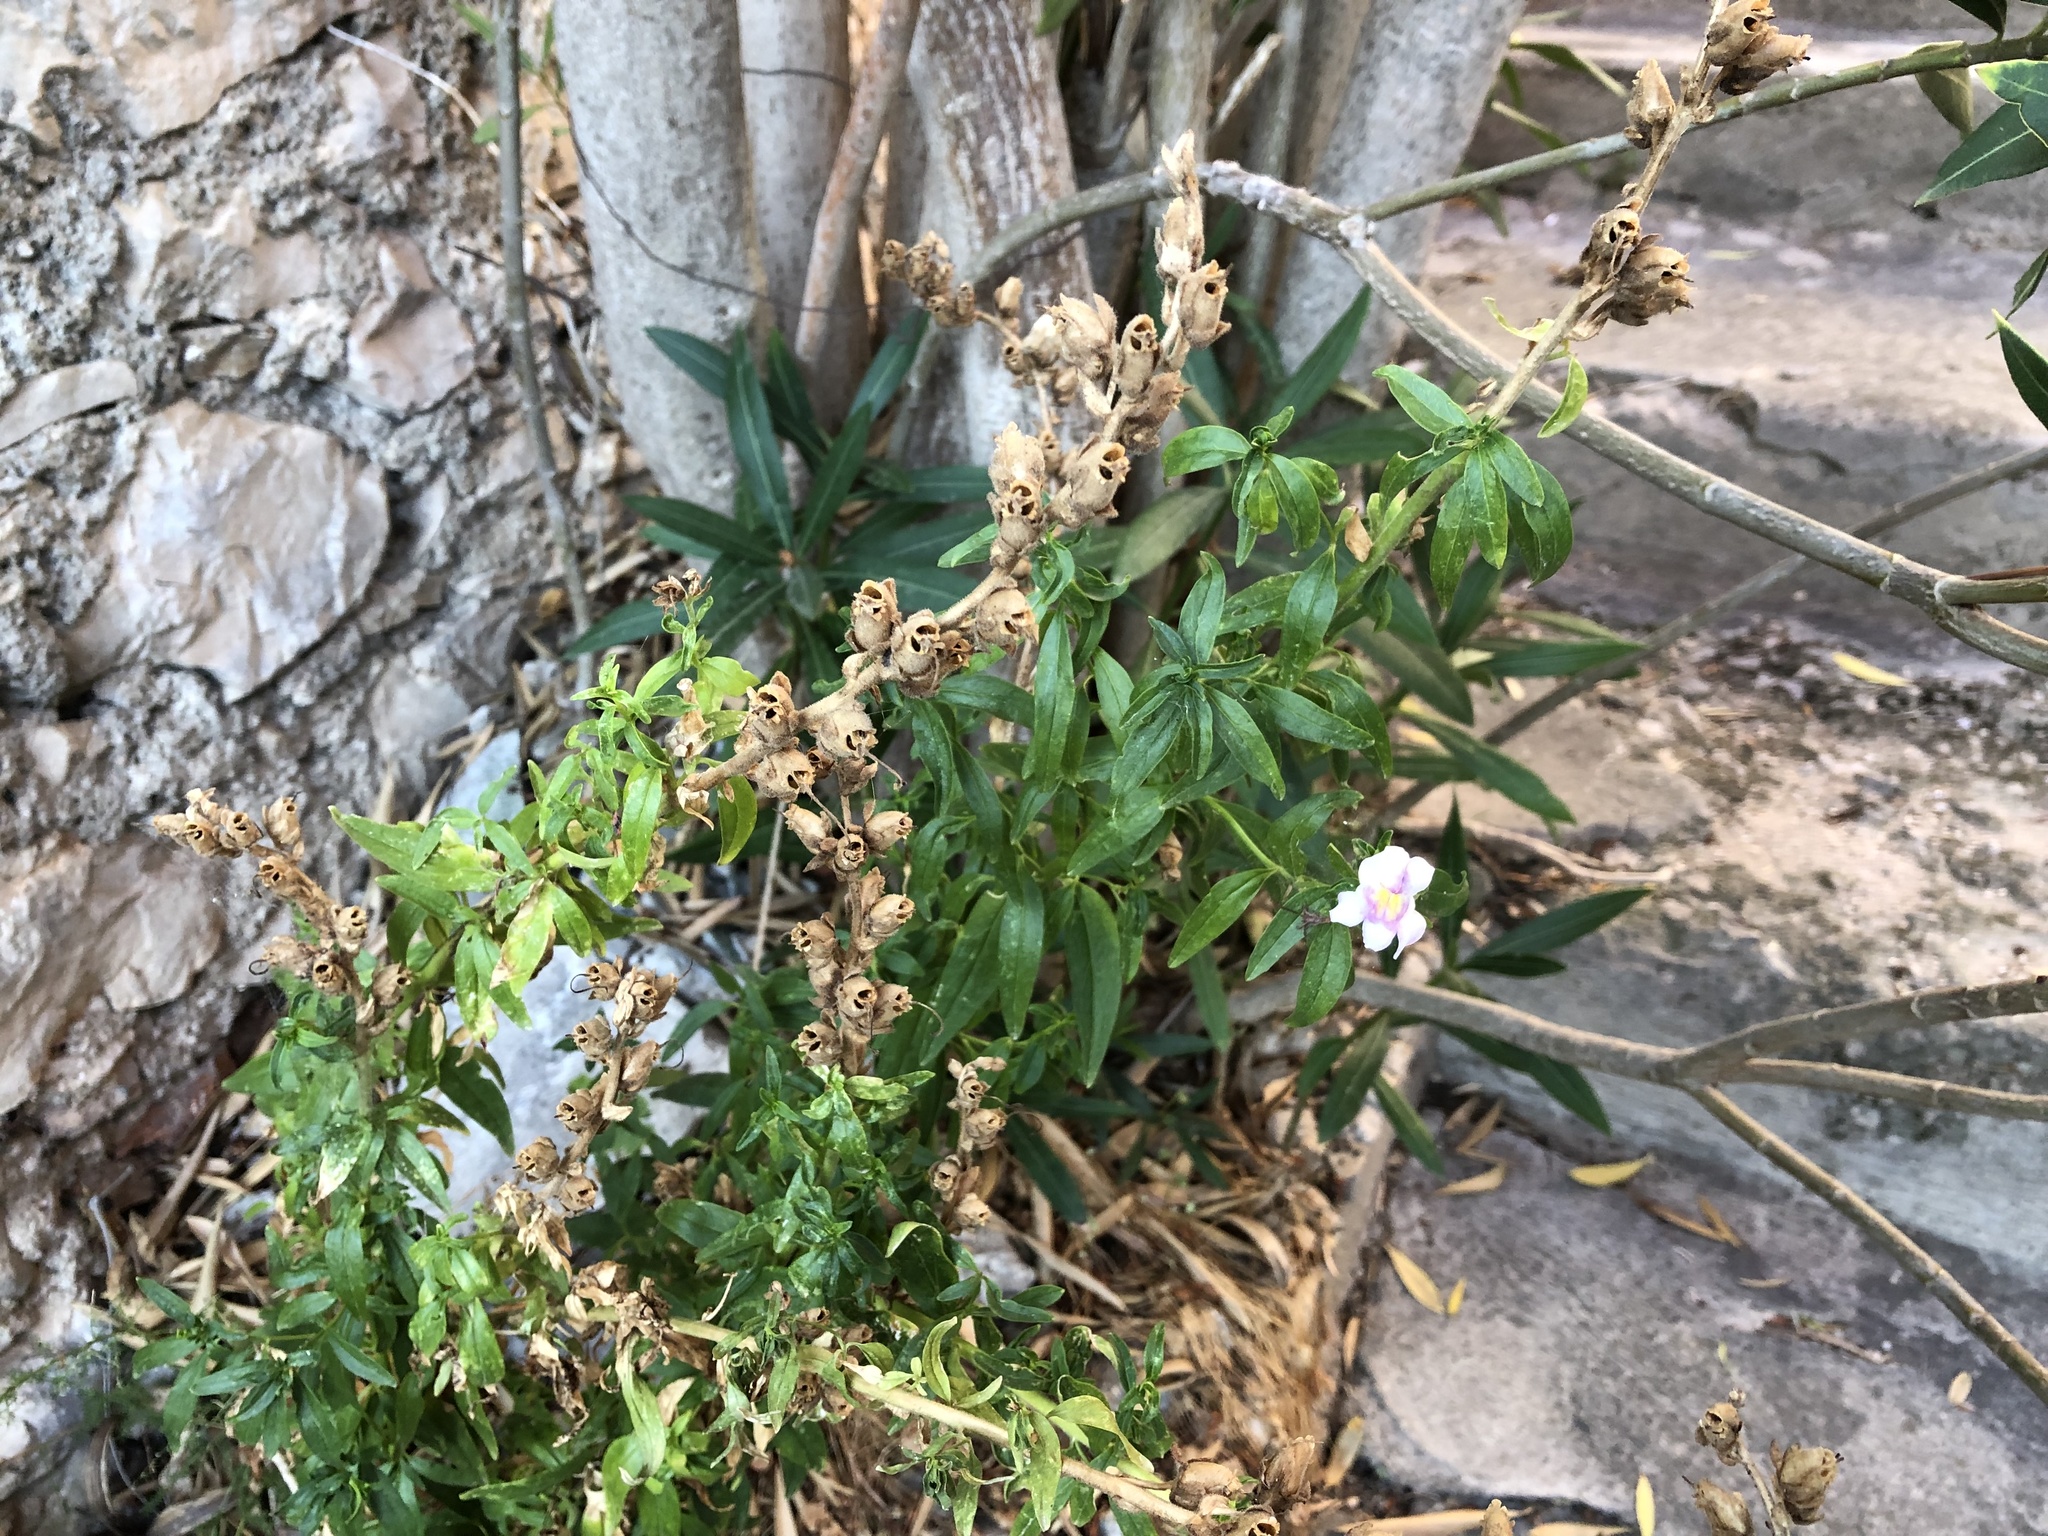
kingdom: Plantae
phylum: Tracheophyta
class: Magnoliopsida
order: Lamiales
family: Plantaginaceae
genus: Antirrhinum
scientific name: Antirrhinum majus
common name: Snapdragon
